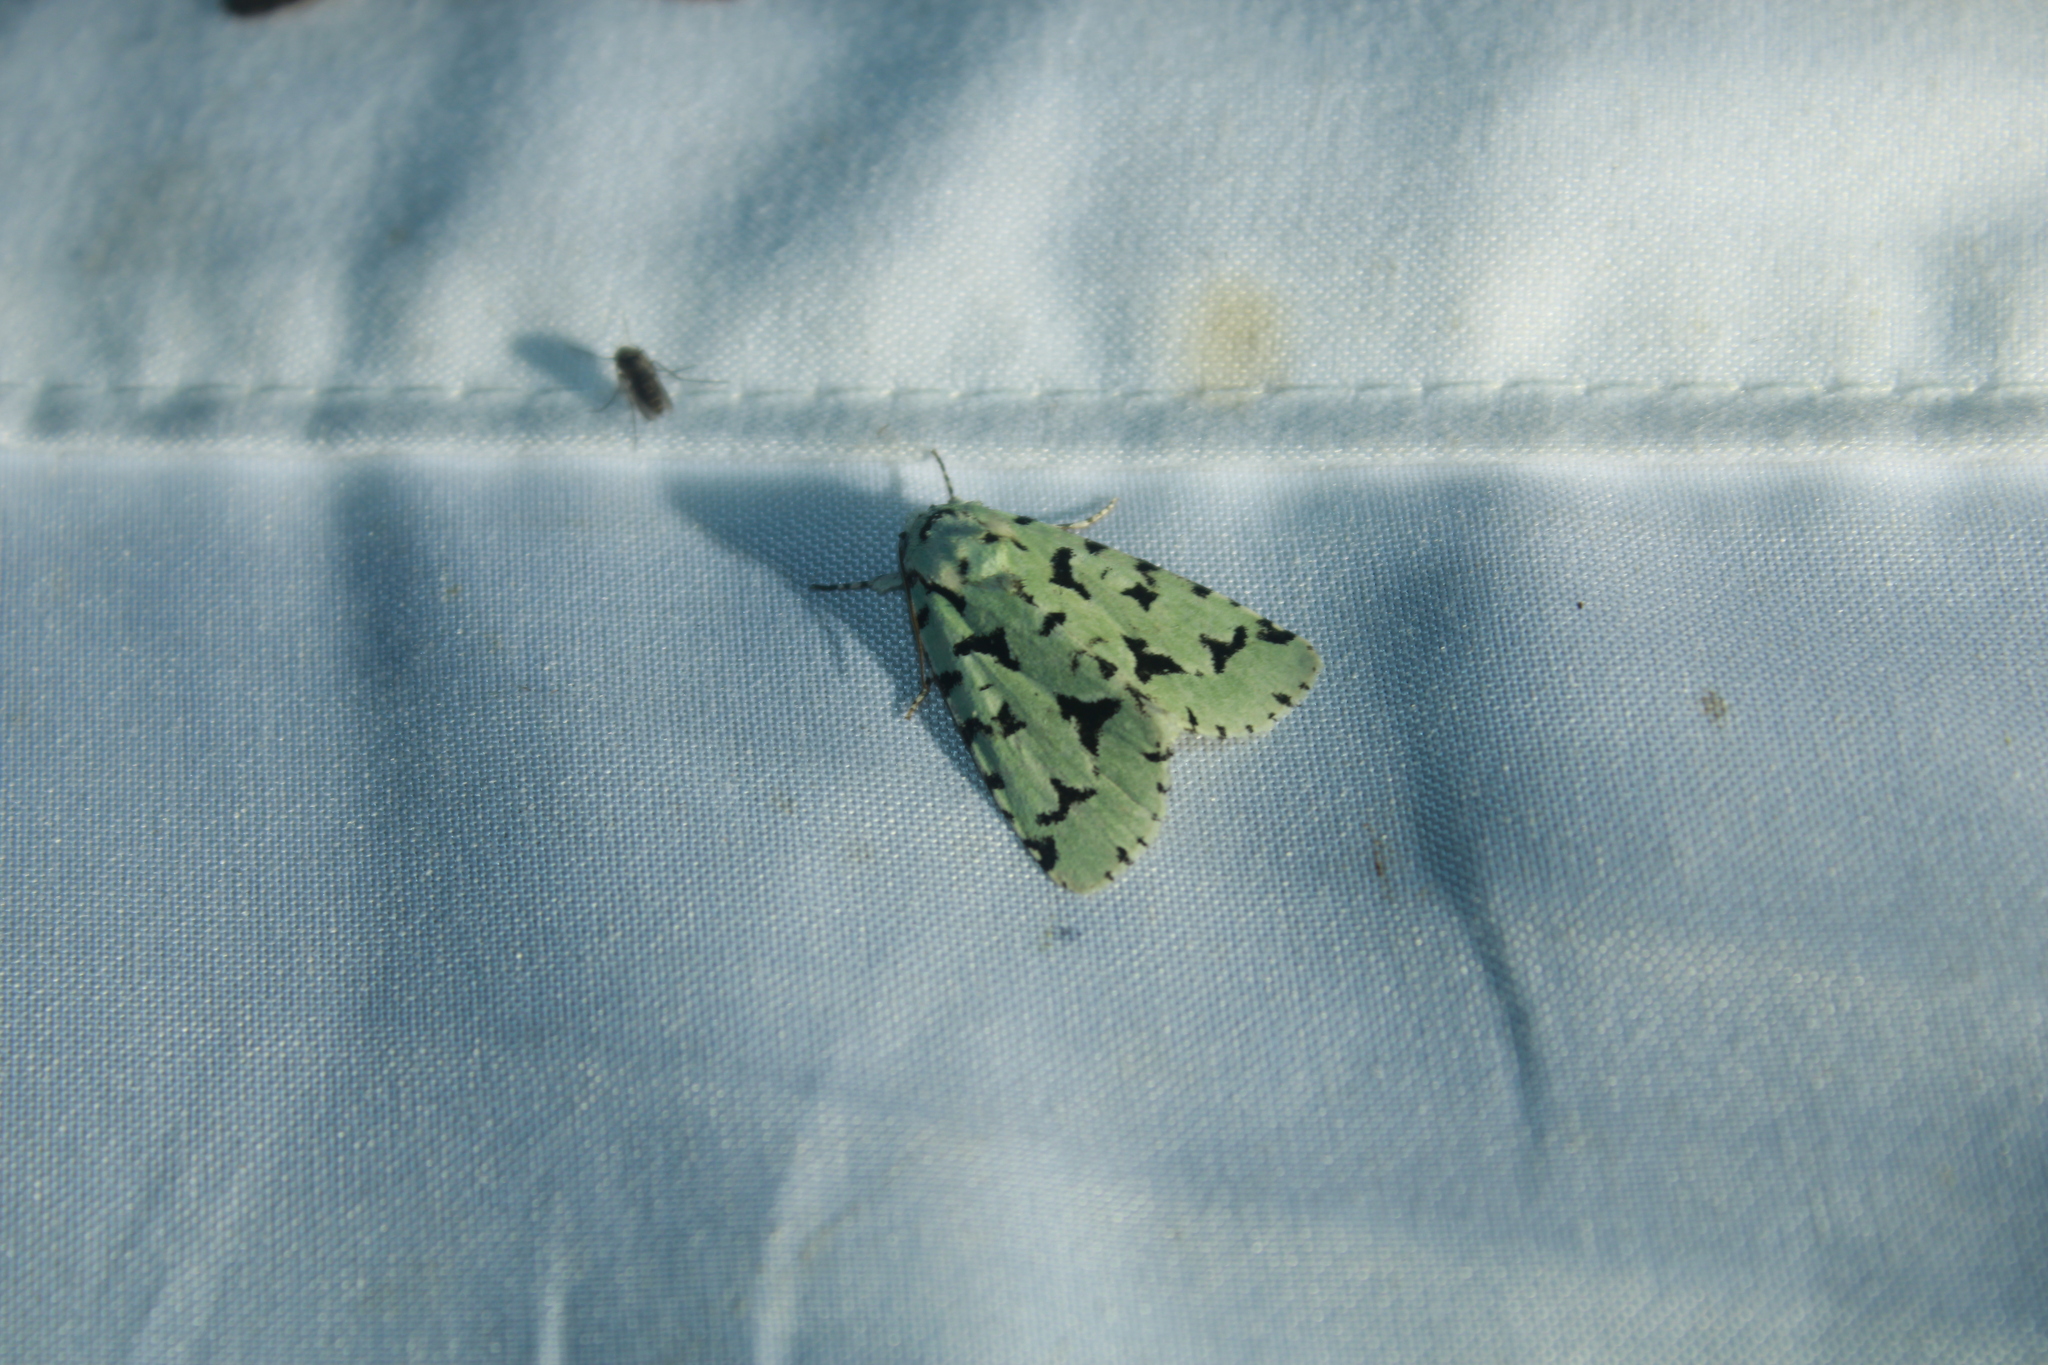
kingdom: Animalia
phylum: Arthropoda
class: Insecta
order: Lepidoptera
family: Noctuidae
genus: Acronicta
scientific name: Acronicta fallax
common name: Green marvel
